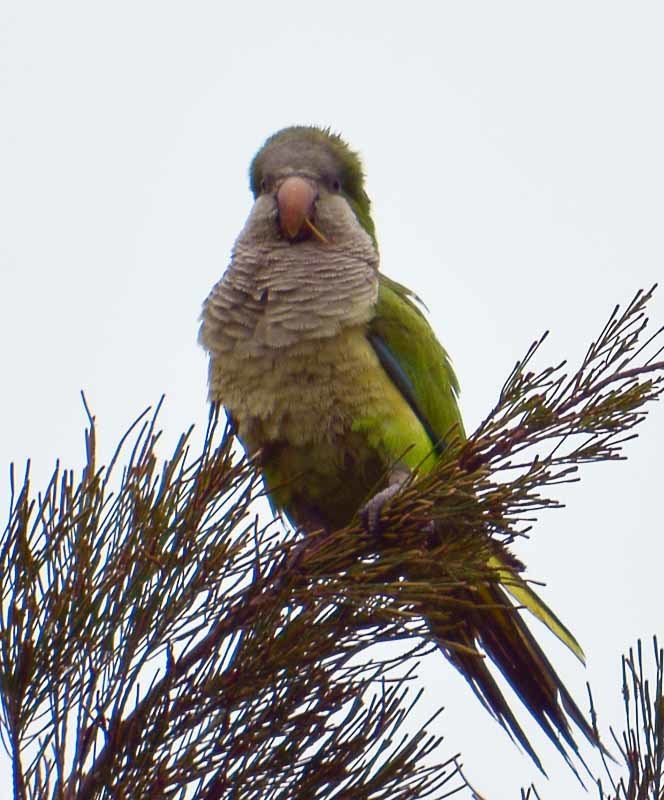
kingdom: Animalia
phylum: Chordata
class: Aves
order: Psittaciformes
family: Psittacidae
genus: Myiopsitta
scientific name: Myiopsitta monachus
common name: Monk parakeet
